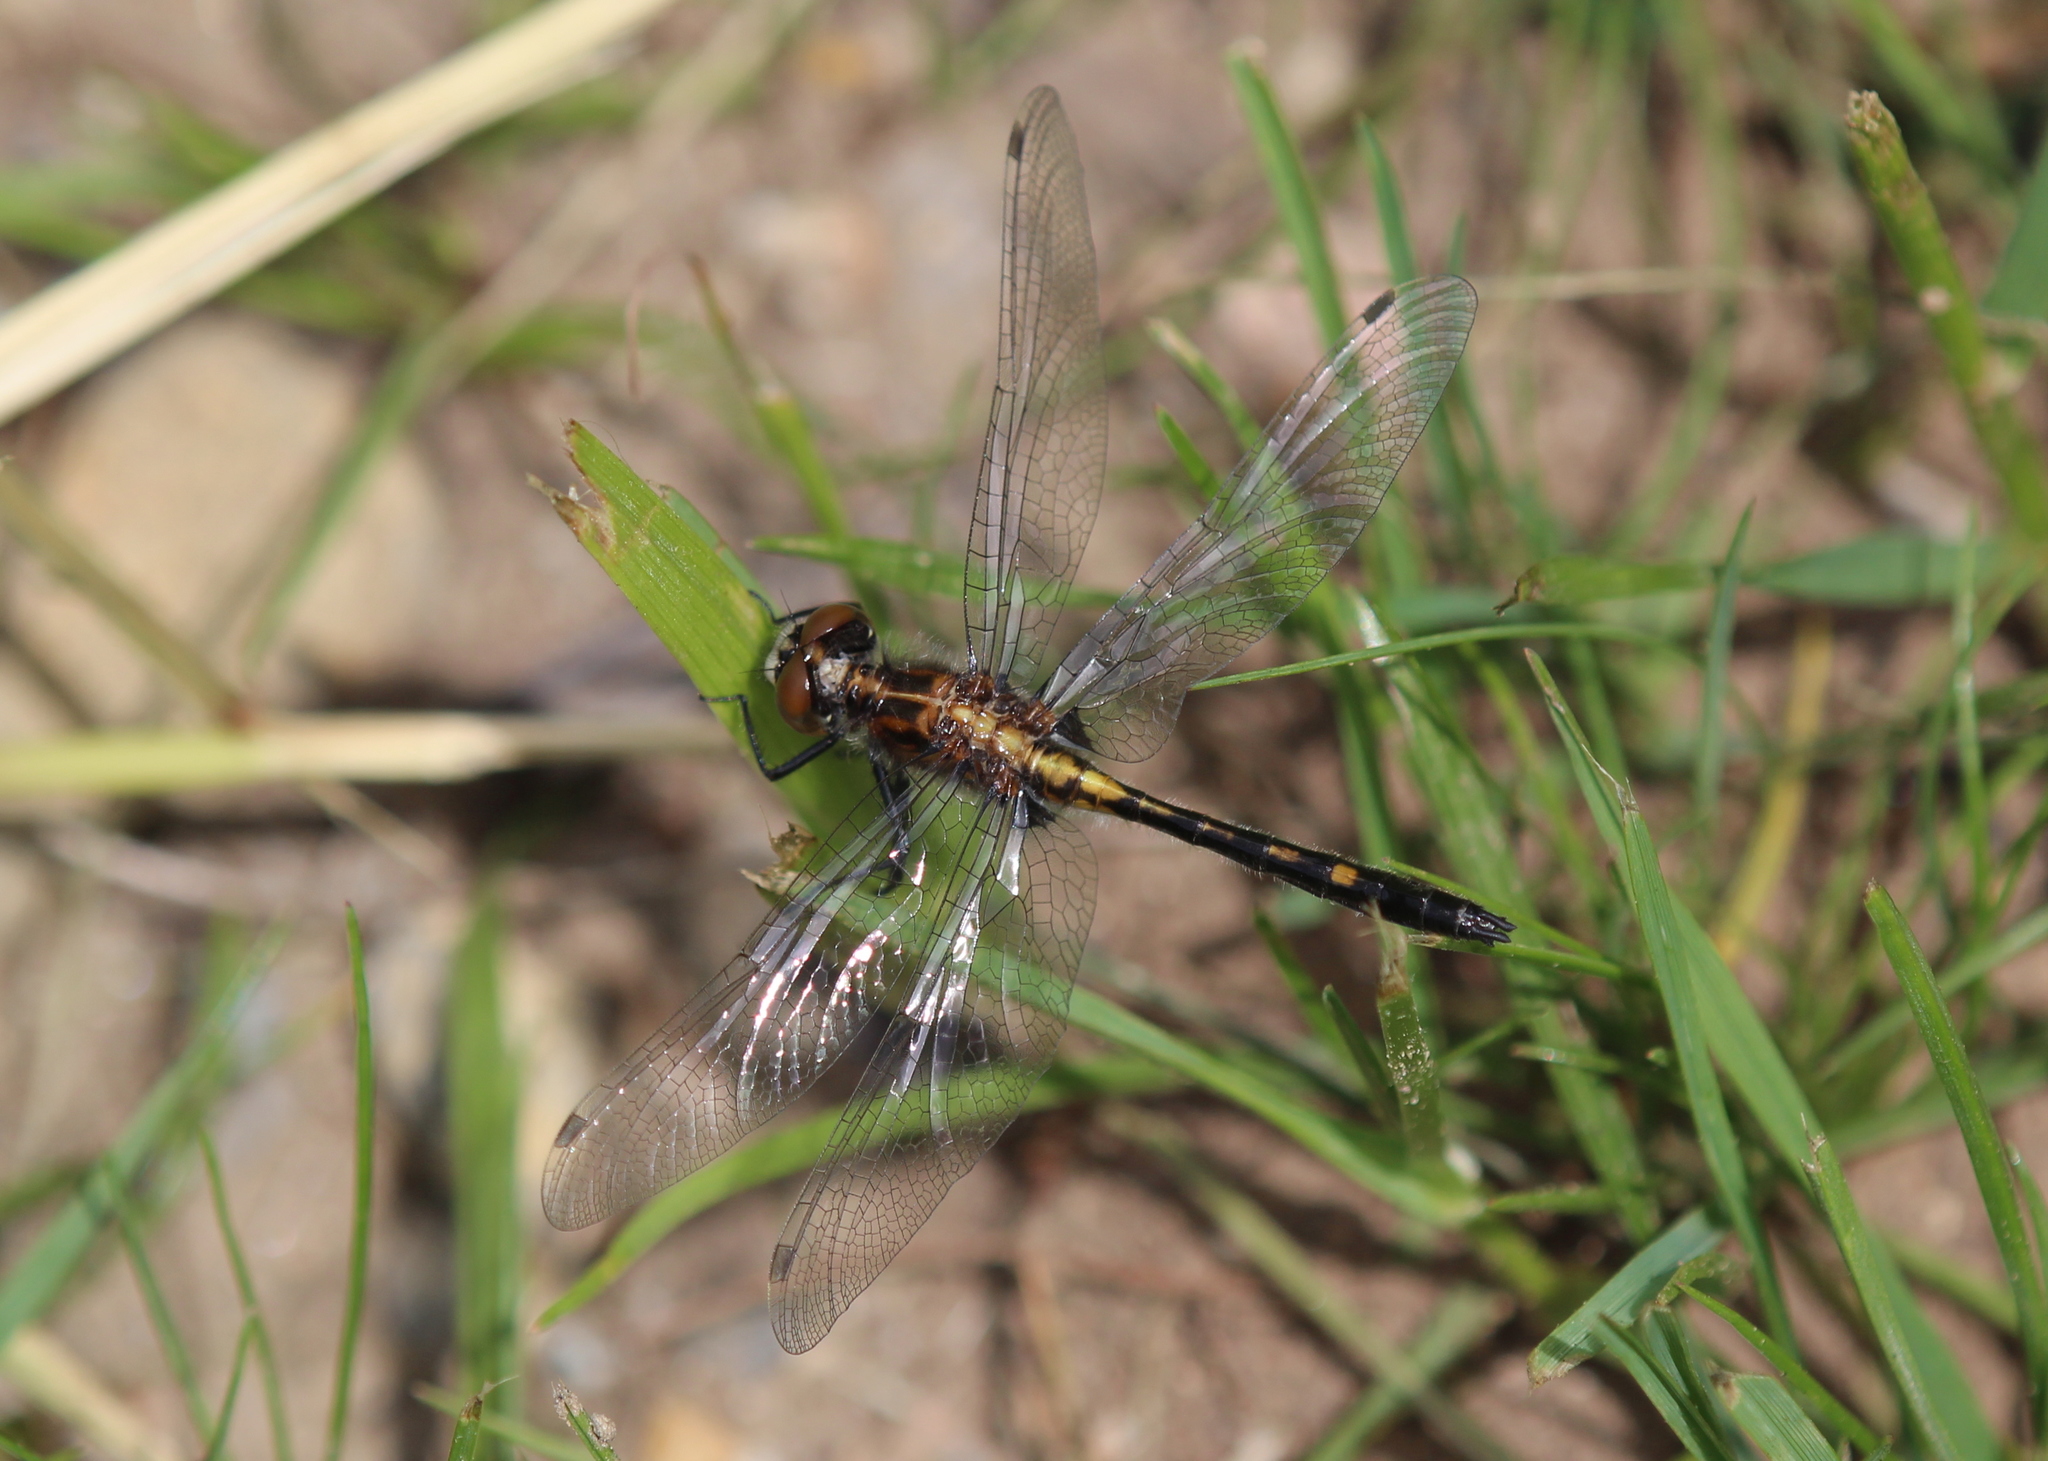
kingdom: Animalia
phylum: Arthropoda
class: Insecta
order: Odonata
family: Libellulidae
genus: Leucorrhinia
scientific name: Leucorrhinia intacta
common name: Dot-tailed whiteface
